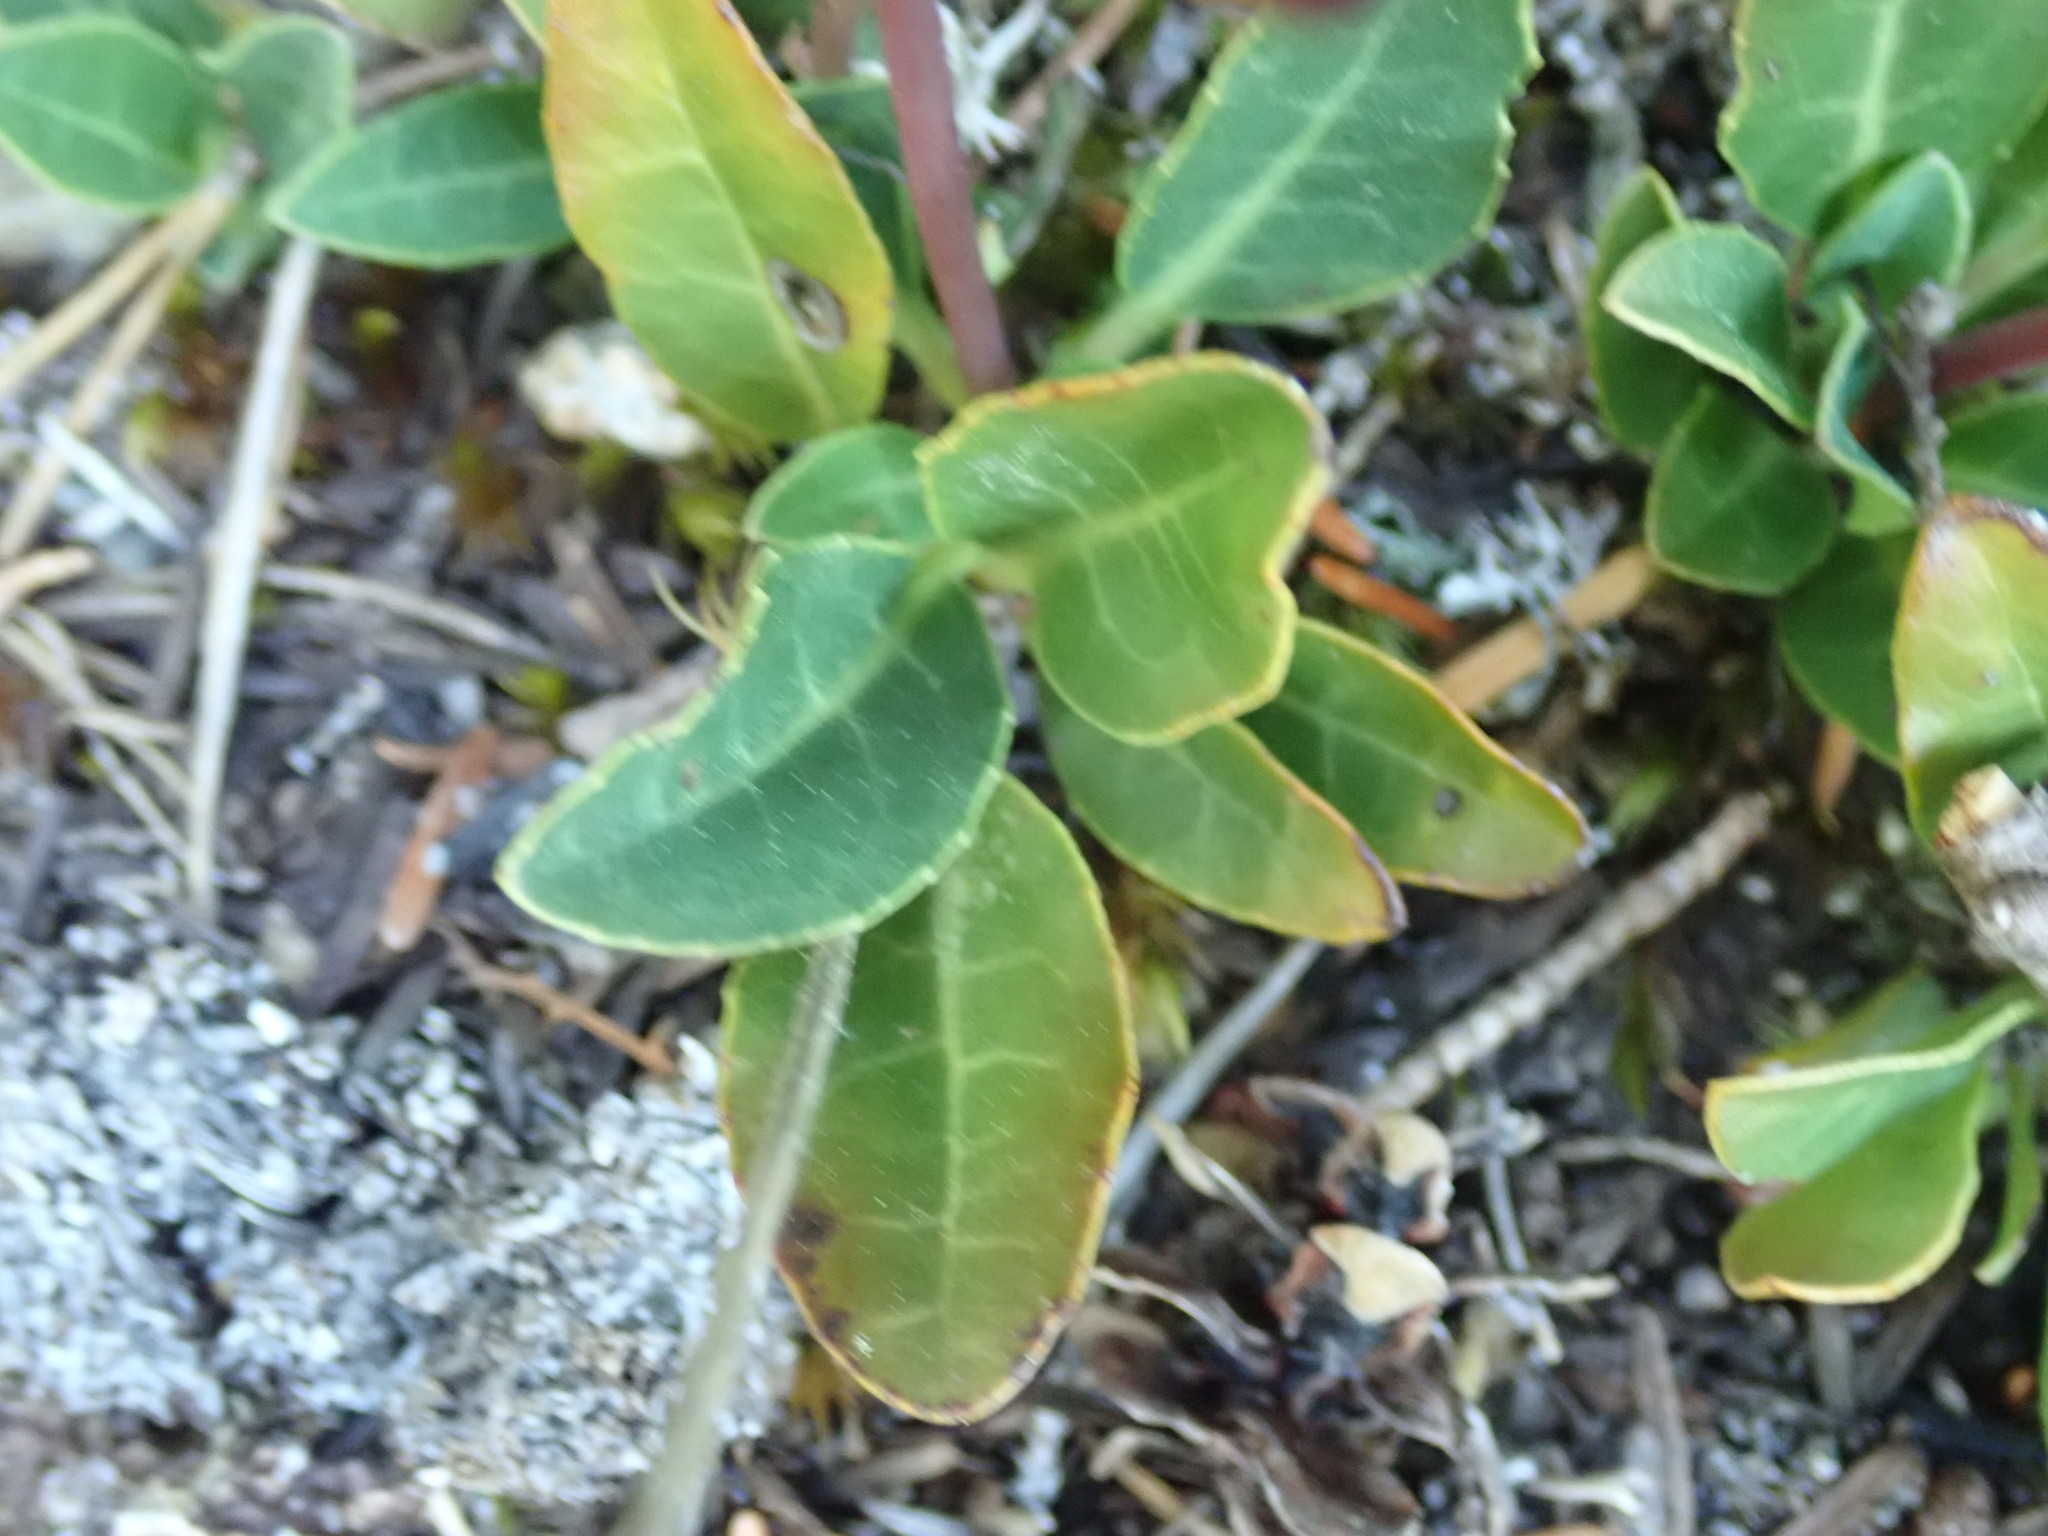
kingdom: Plantae
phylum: Tracheophyta
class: Magnoliopsida
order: Ericales
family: Ericaceae
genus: Pyrola
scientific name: Pyrola dentata
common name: Tooth-leaved wintergreen
